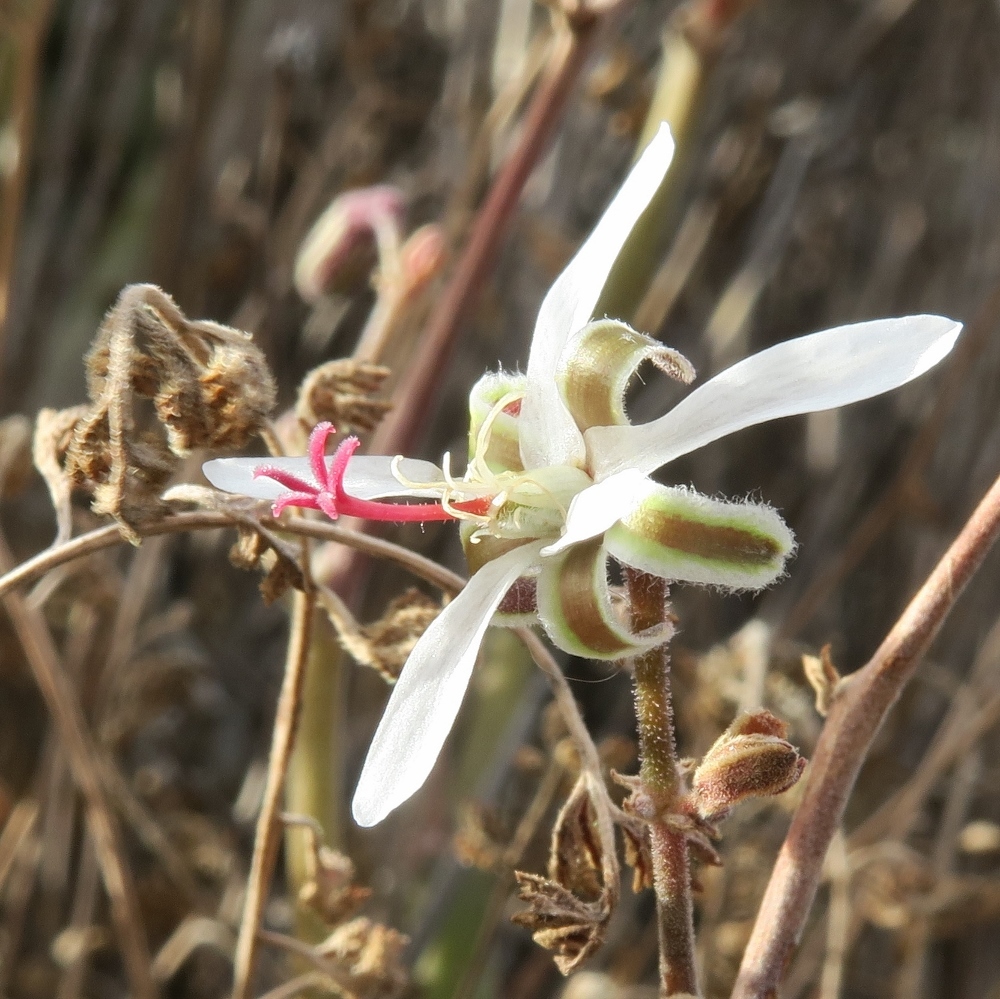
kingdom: Plantae
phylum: Tracheophyta
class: Magnoliopsida
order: Geraniales
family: Geraniaceae
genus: Pelargonium
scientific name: Pelargonium carnosum
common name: Fleshy-stalk pelargonium
